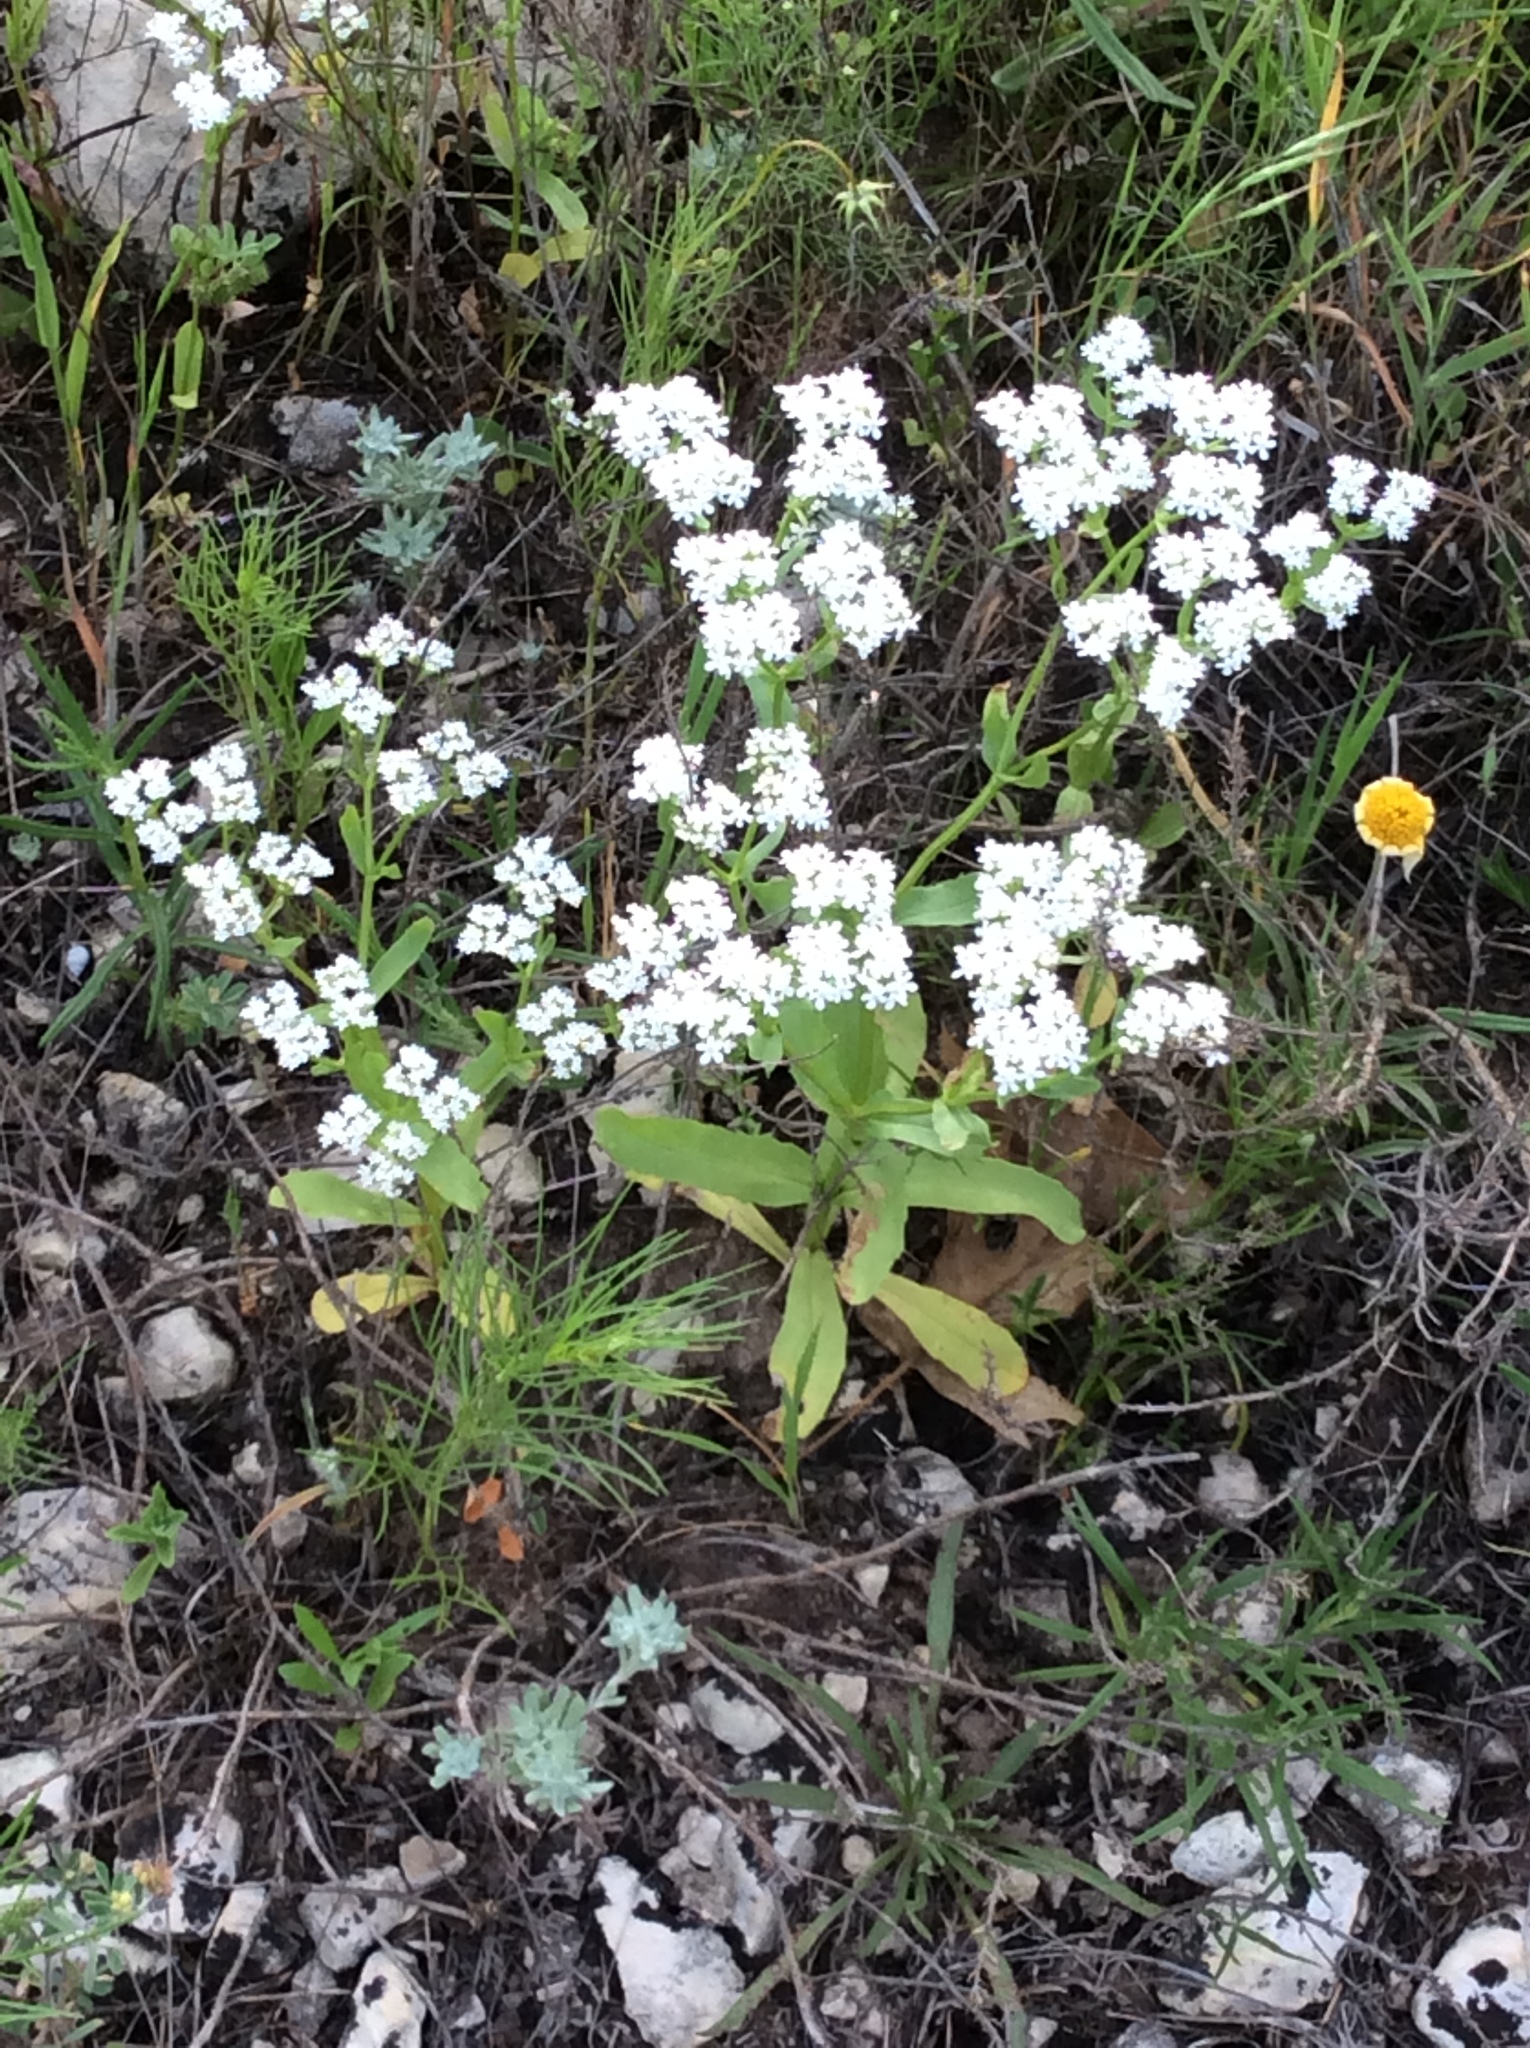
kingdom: Plantae
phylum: Tracheophyta
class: Magnoliopsida
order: Dipsacales
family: Caprifoliaceae
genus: Valerianella
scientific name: Valerianella amarella
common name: Hariy cornsalad
